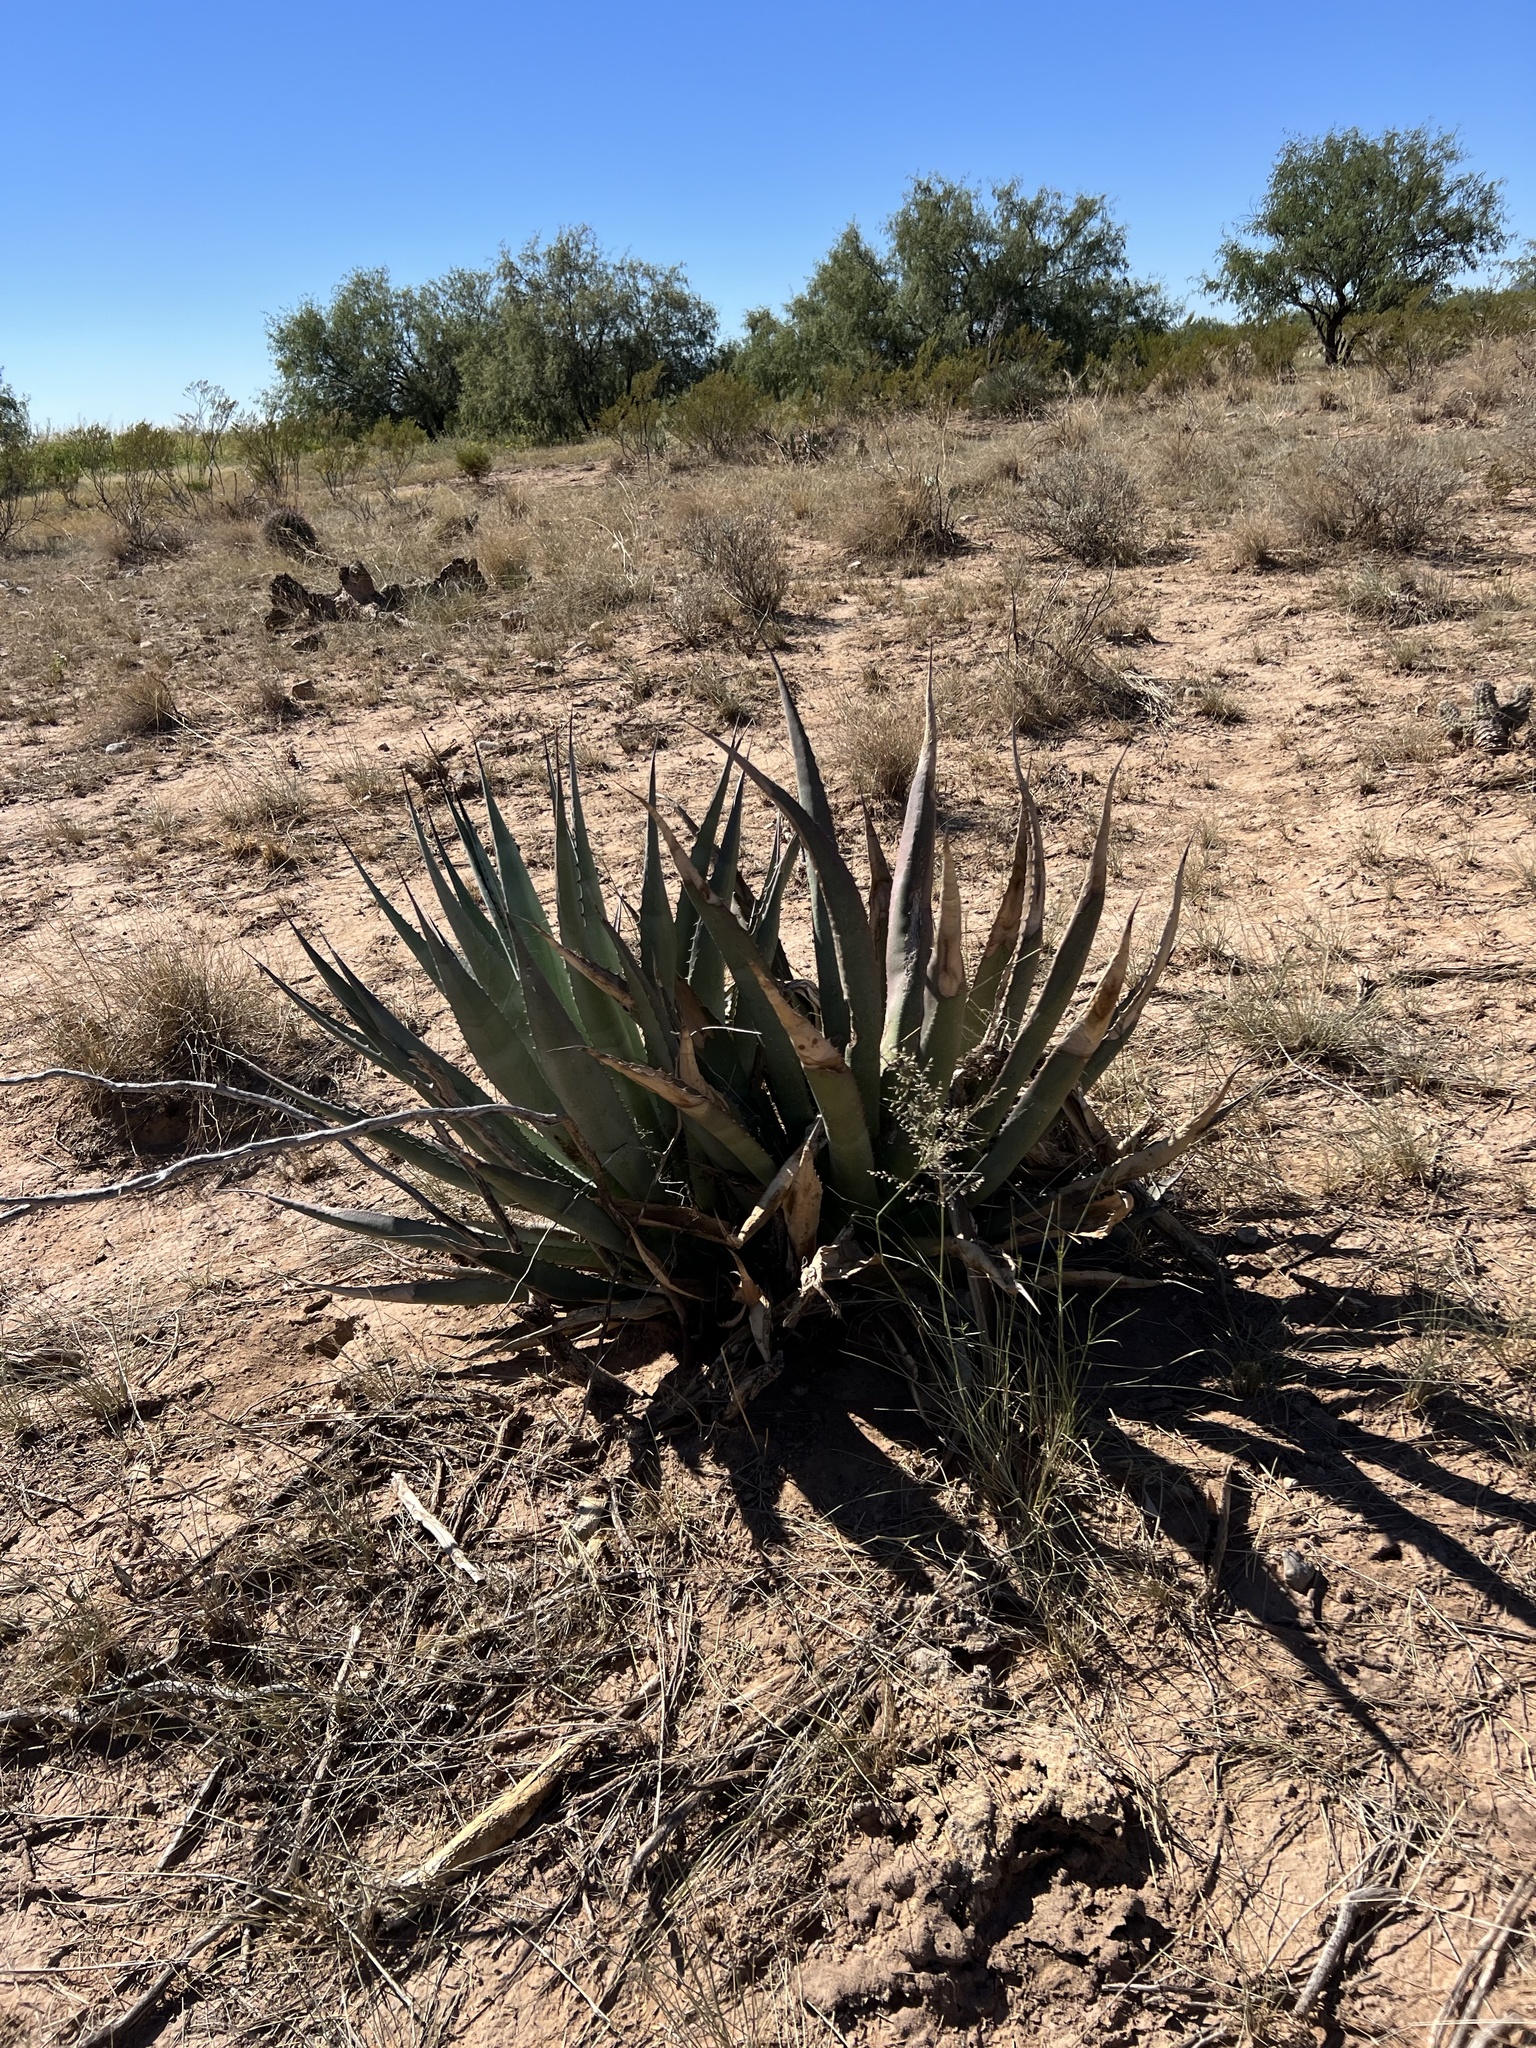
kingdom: Plantae
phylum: Tracheophyta
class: Liliopsida
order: Asparagales
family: Asparagaceae
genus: Agave
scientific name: Agave palmeri
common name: Palmer agave
